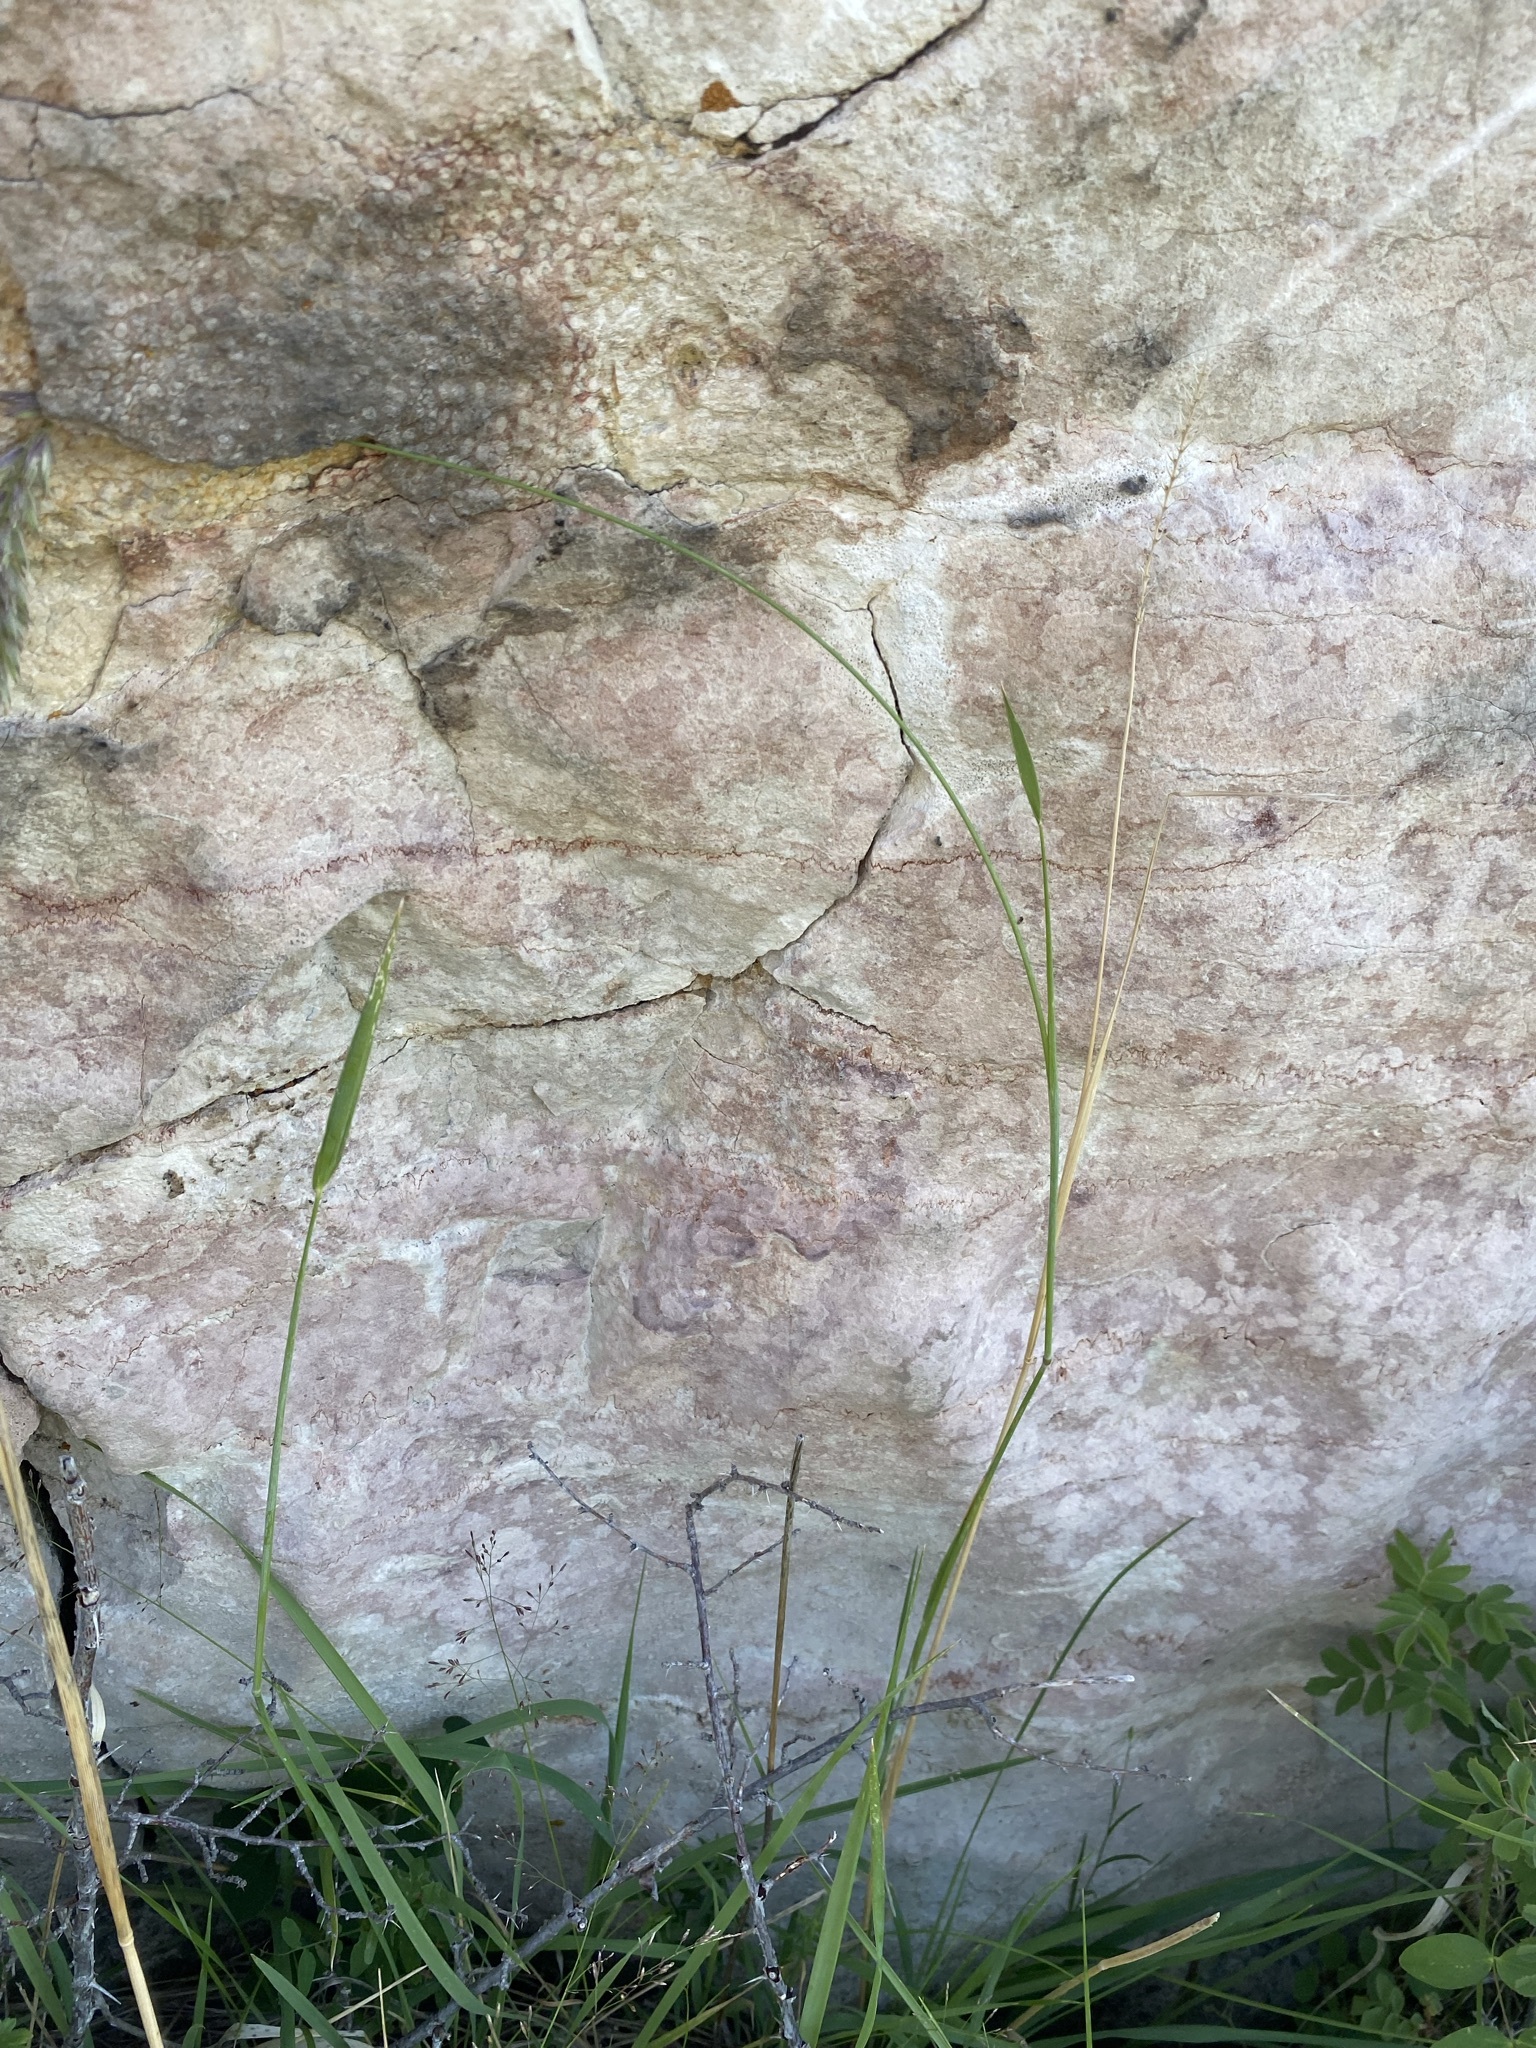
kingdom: Plantae
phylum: Tracheophyta
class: Liliopsida
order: Poales
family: Poaceae
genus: Leymus
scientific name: Leymus innovatus
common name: Boreal wild rye
